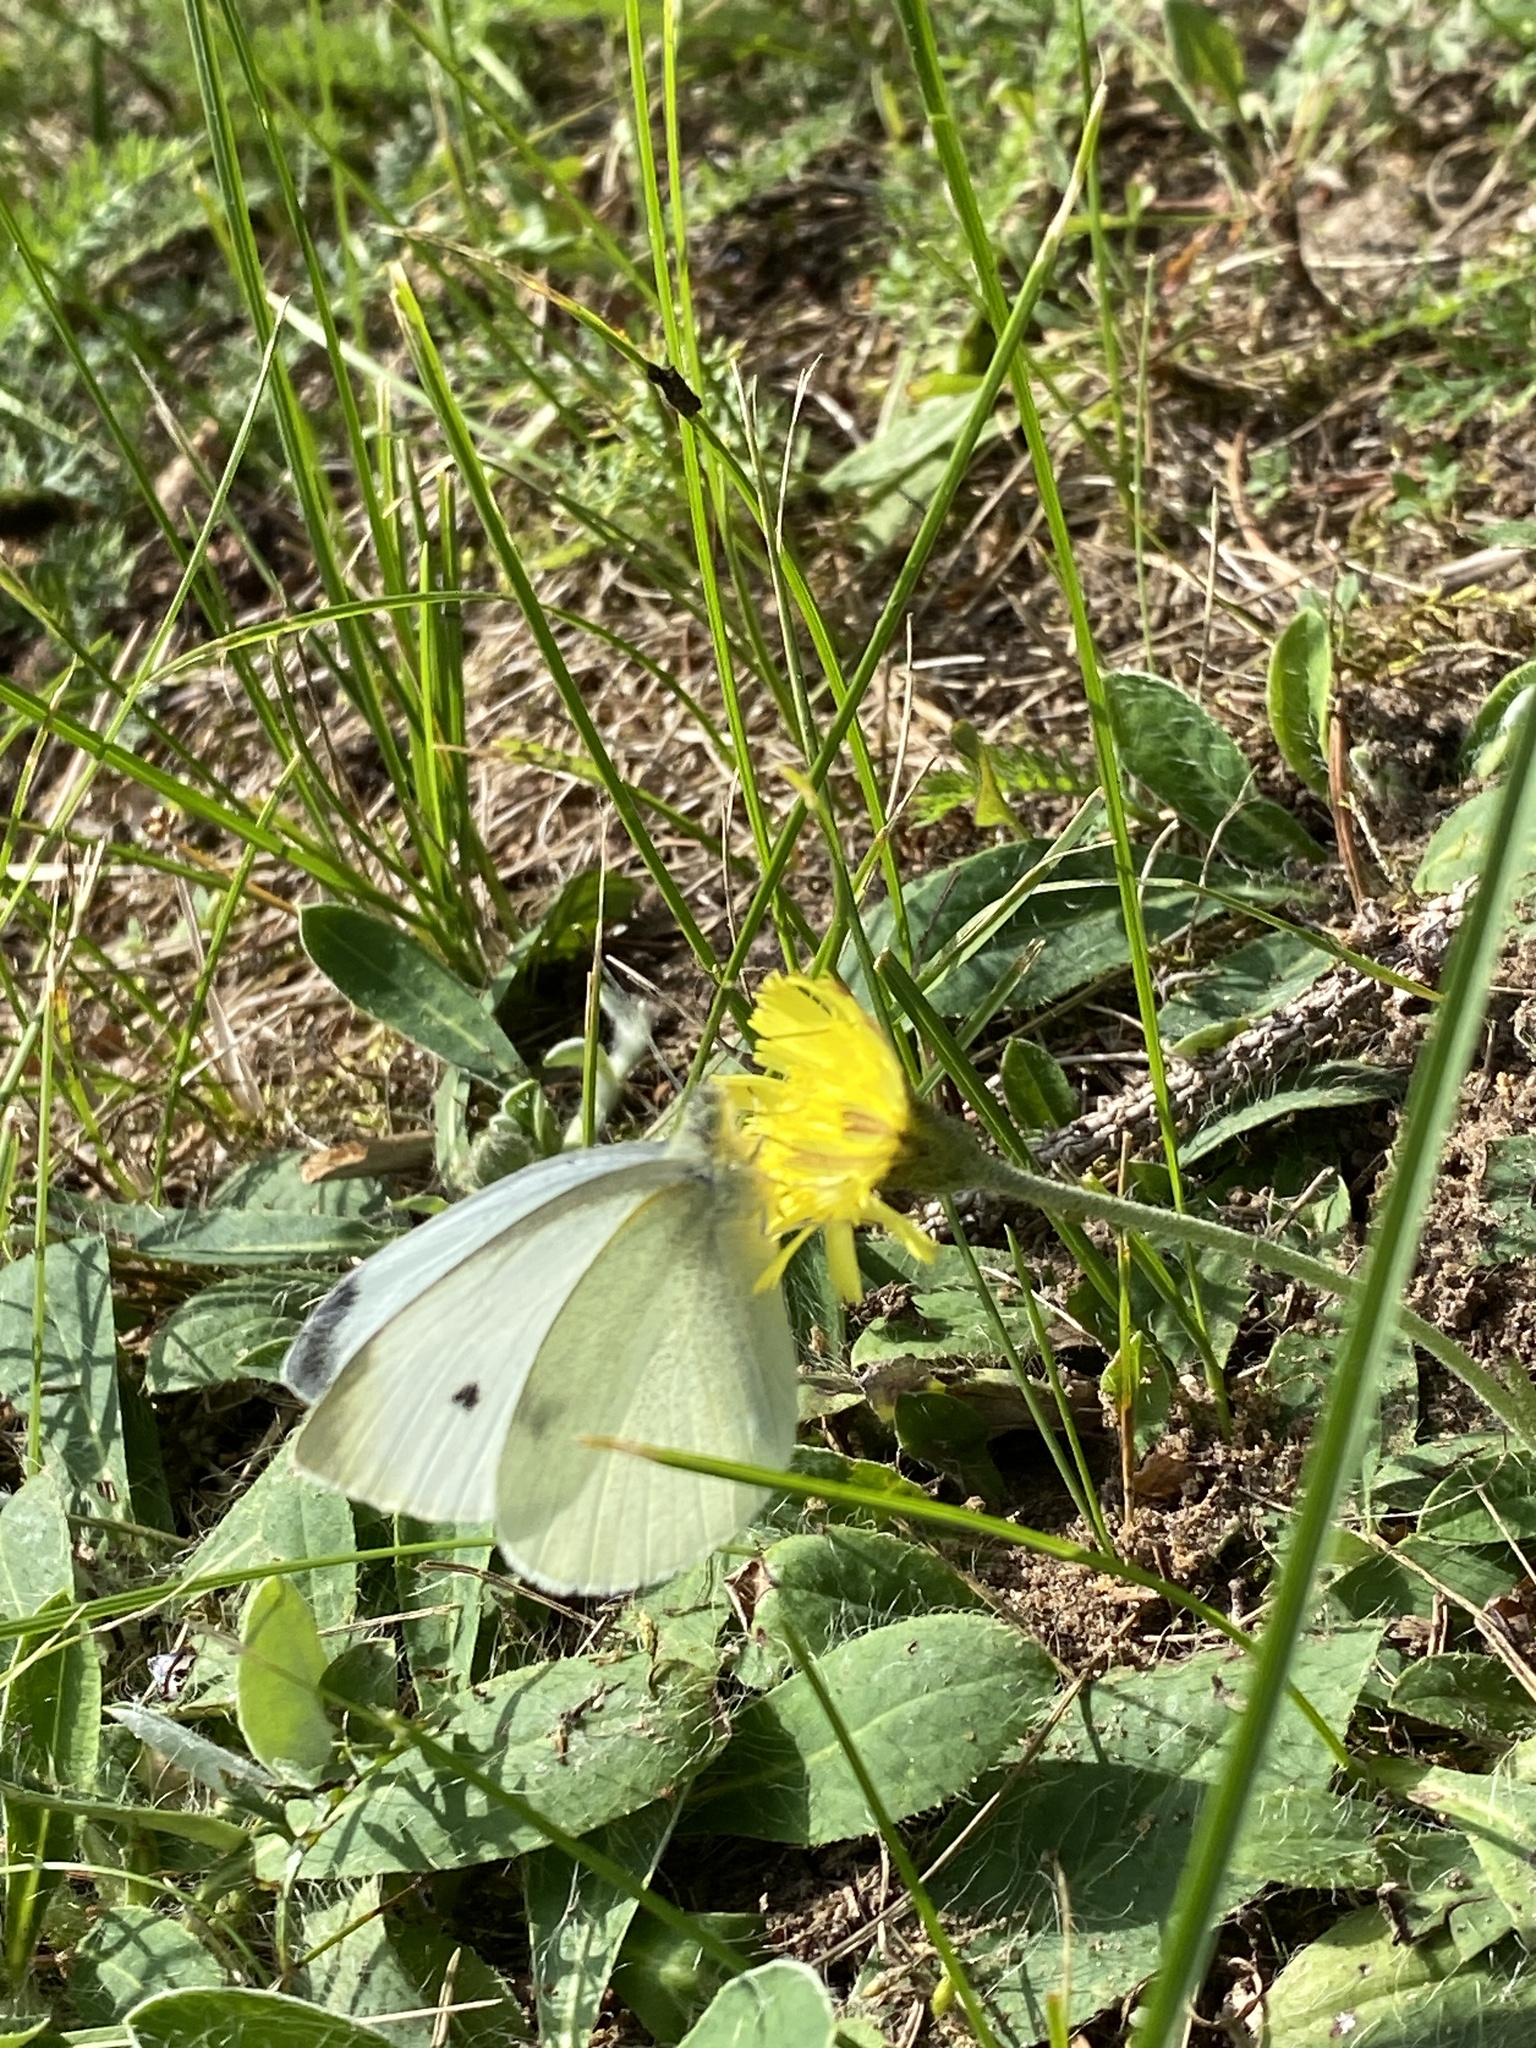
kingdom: Animalia
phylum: Arthropoda
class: Insecta
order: Lepidoptera
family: Pieridae
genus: Pieris
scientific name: Pieris rapae
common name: Small white
